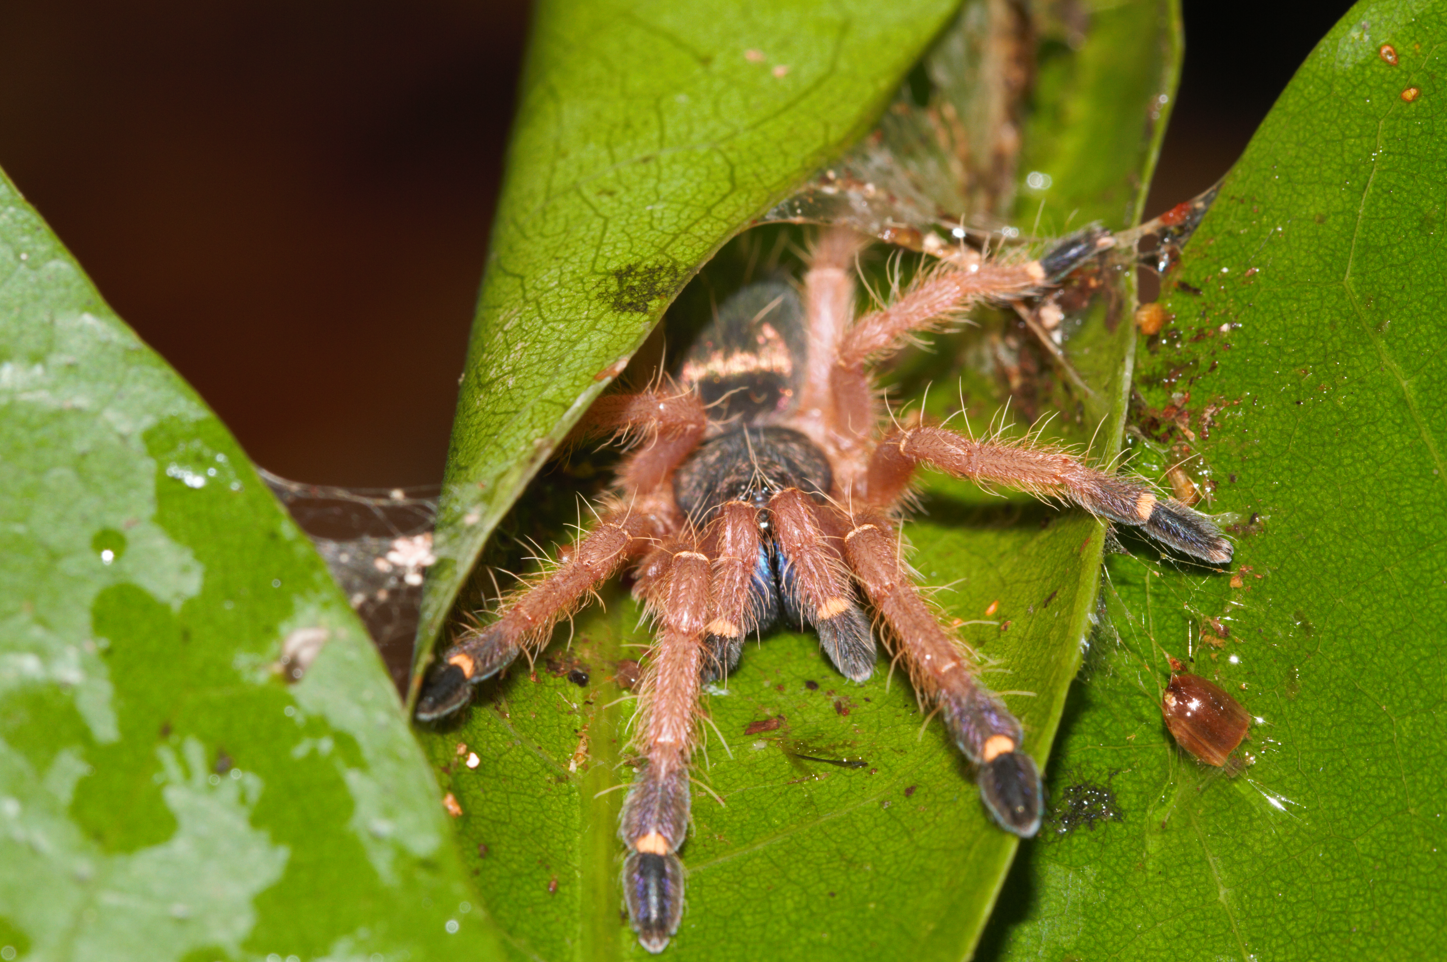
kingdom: Animalia
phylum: Arthropoda
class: Arachnida
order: Araneae
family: Theraphosidae
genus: Ephebopus
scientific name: Ephebopus cyanognathus
